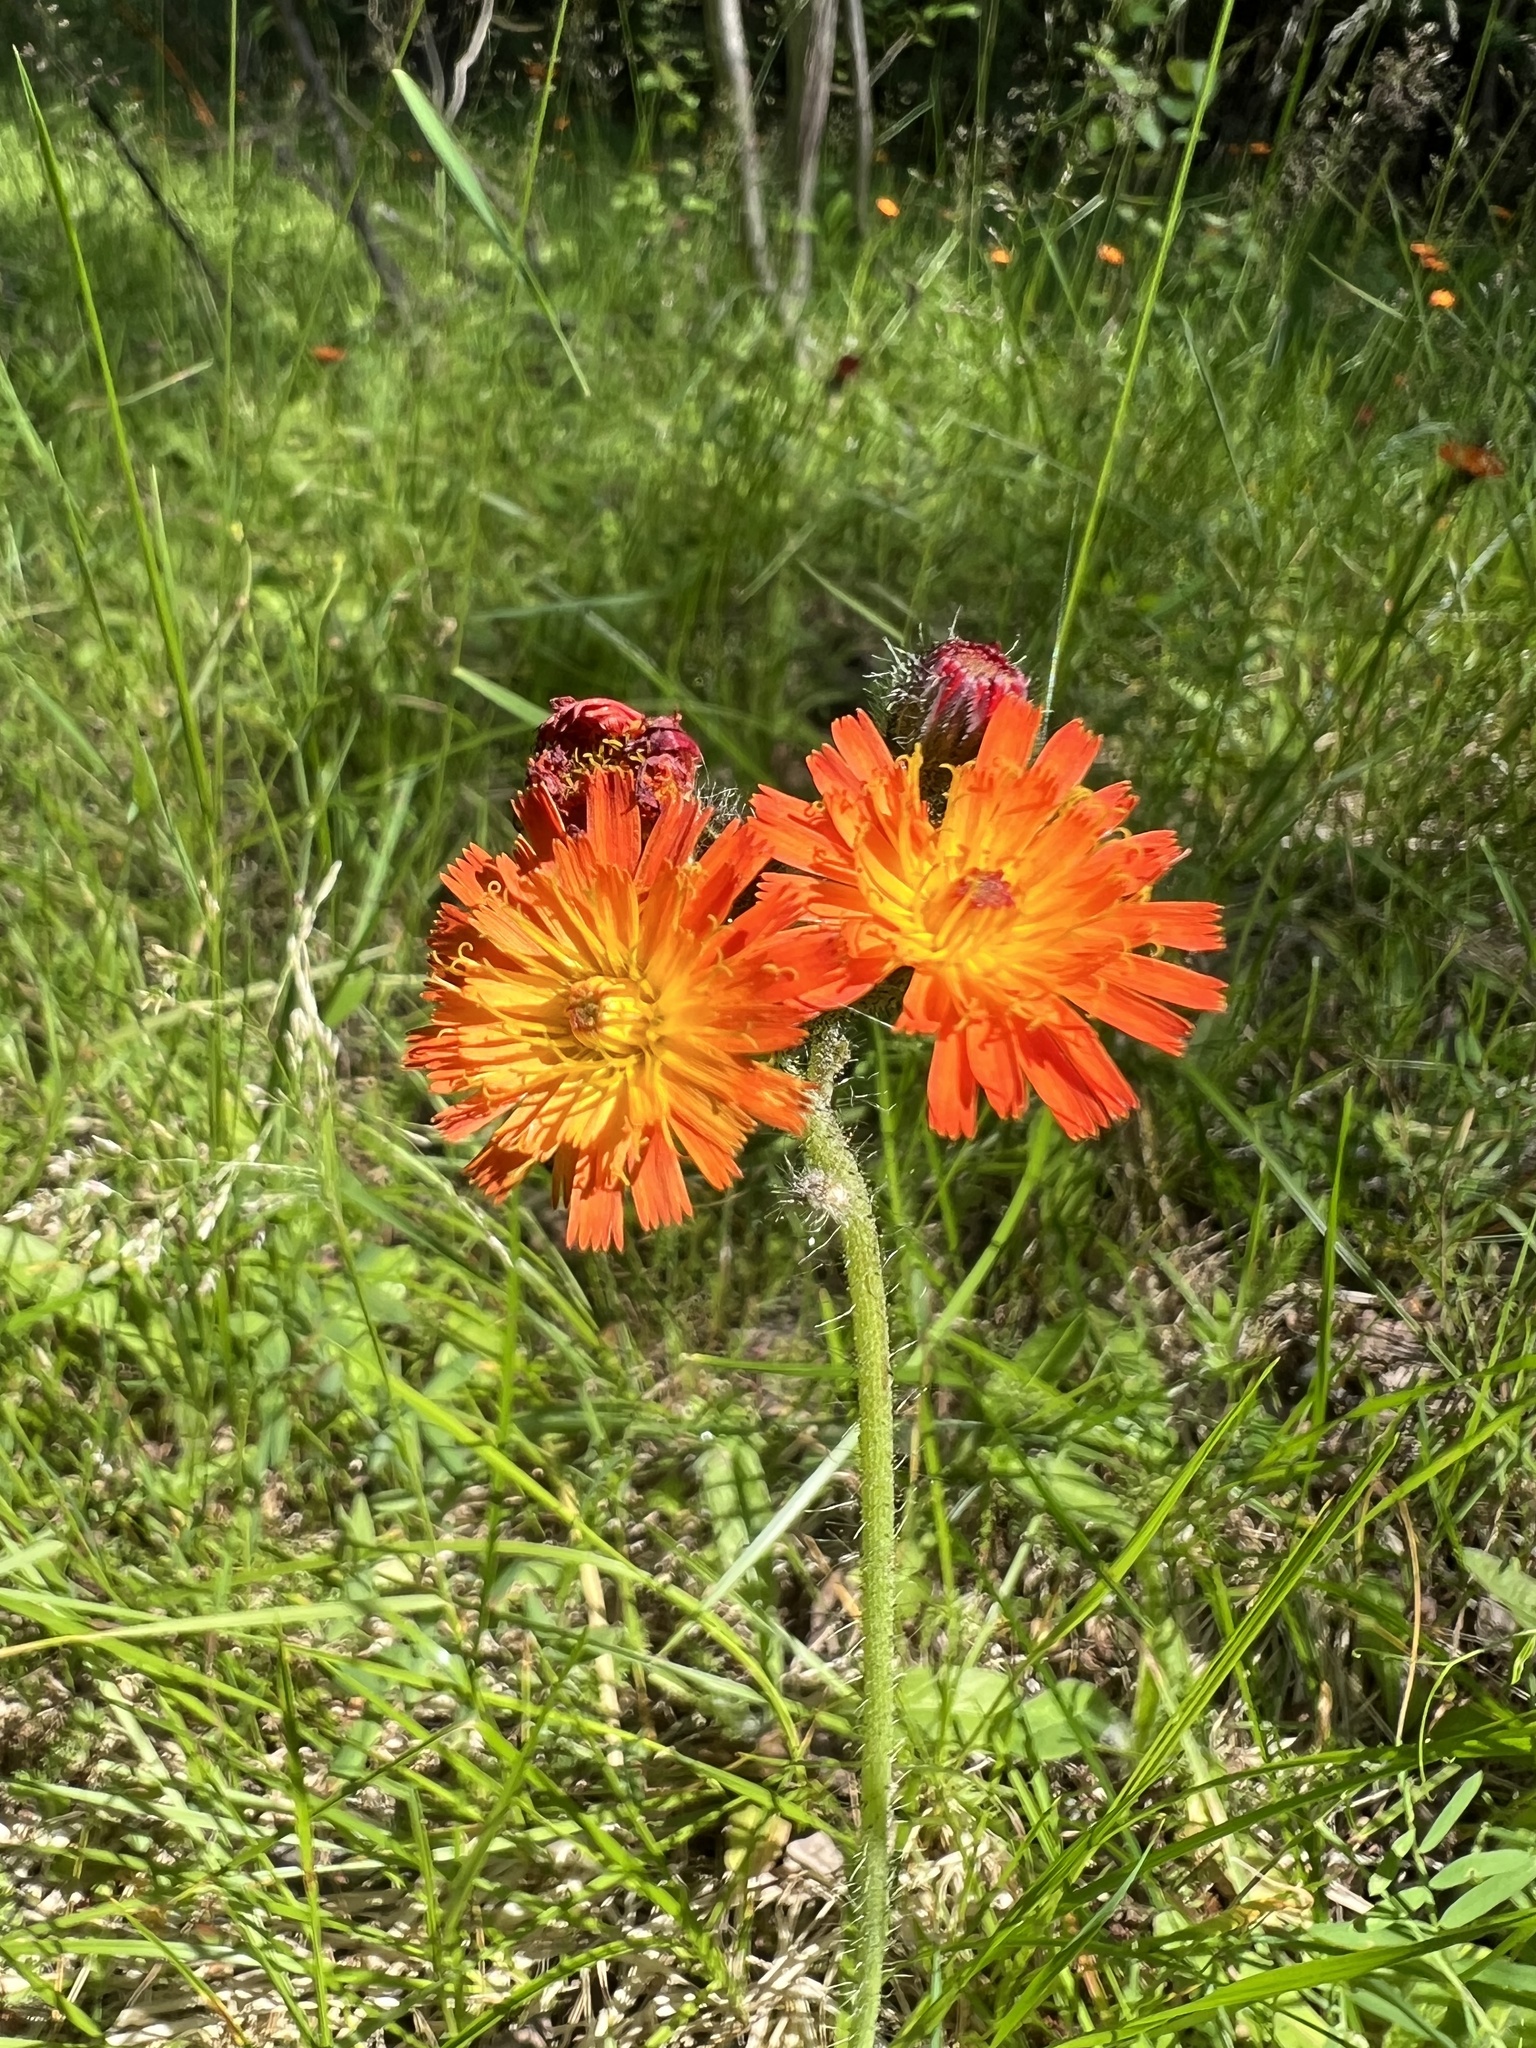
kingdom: Plantae
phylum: Tracheophyta
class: Magnoliopsida
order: Asterales
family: Asteraceae
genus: Pilosella
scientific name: Pilosella aurantiaca
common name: Fox-and-cubs
